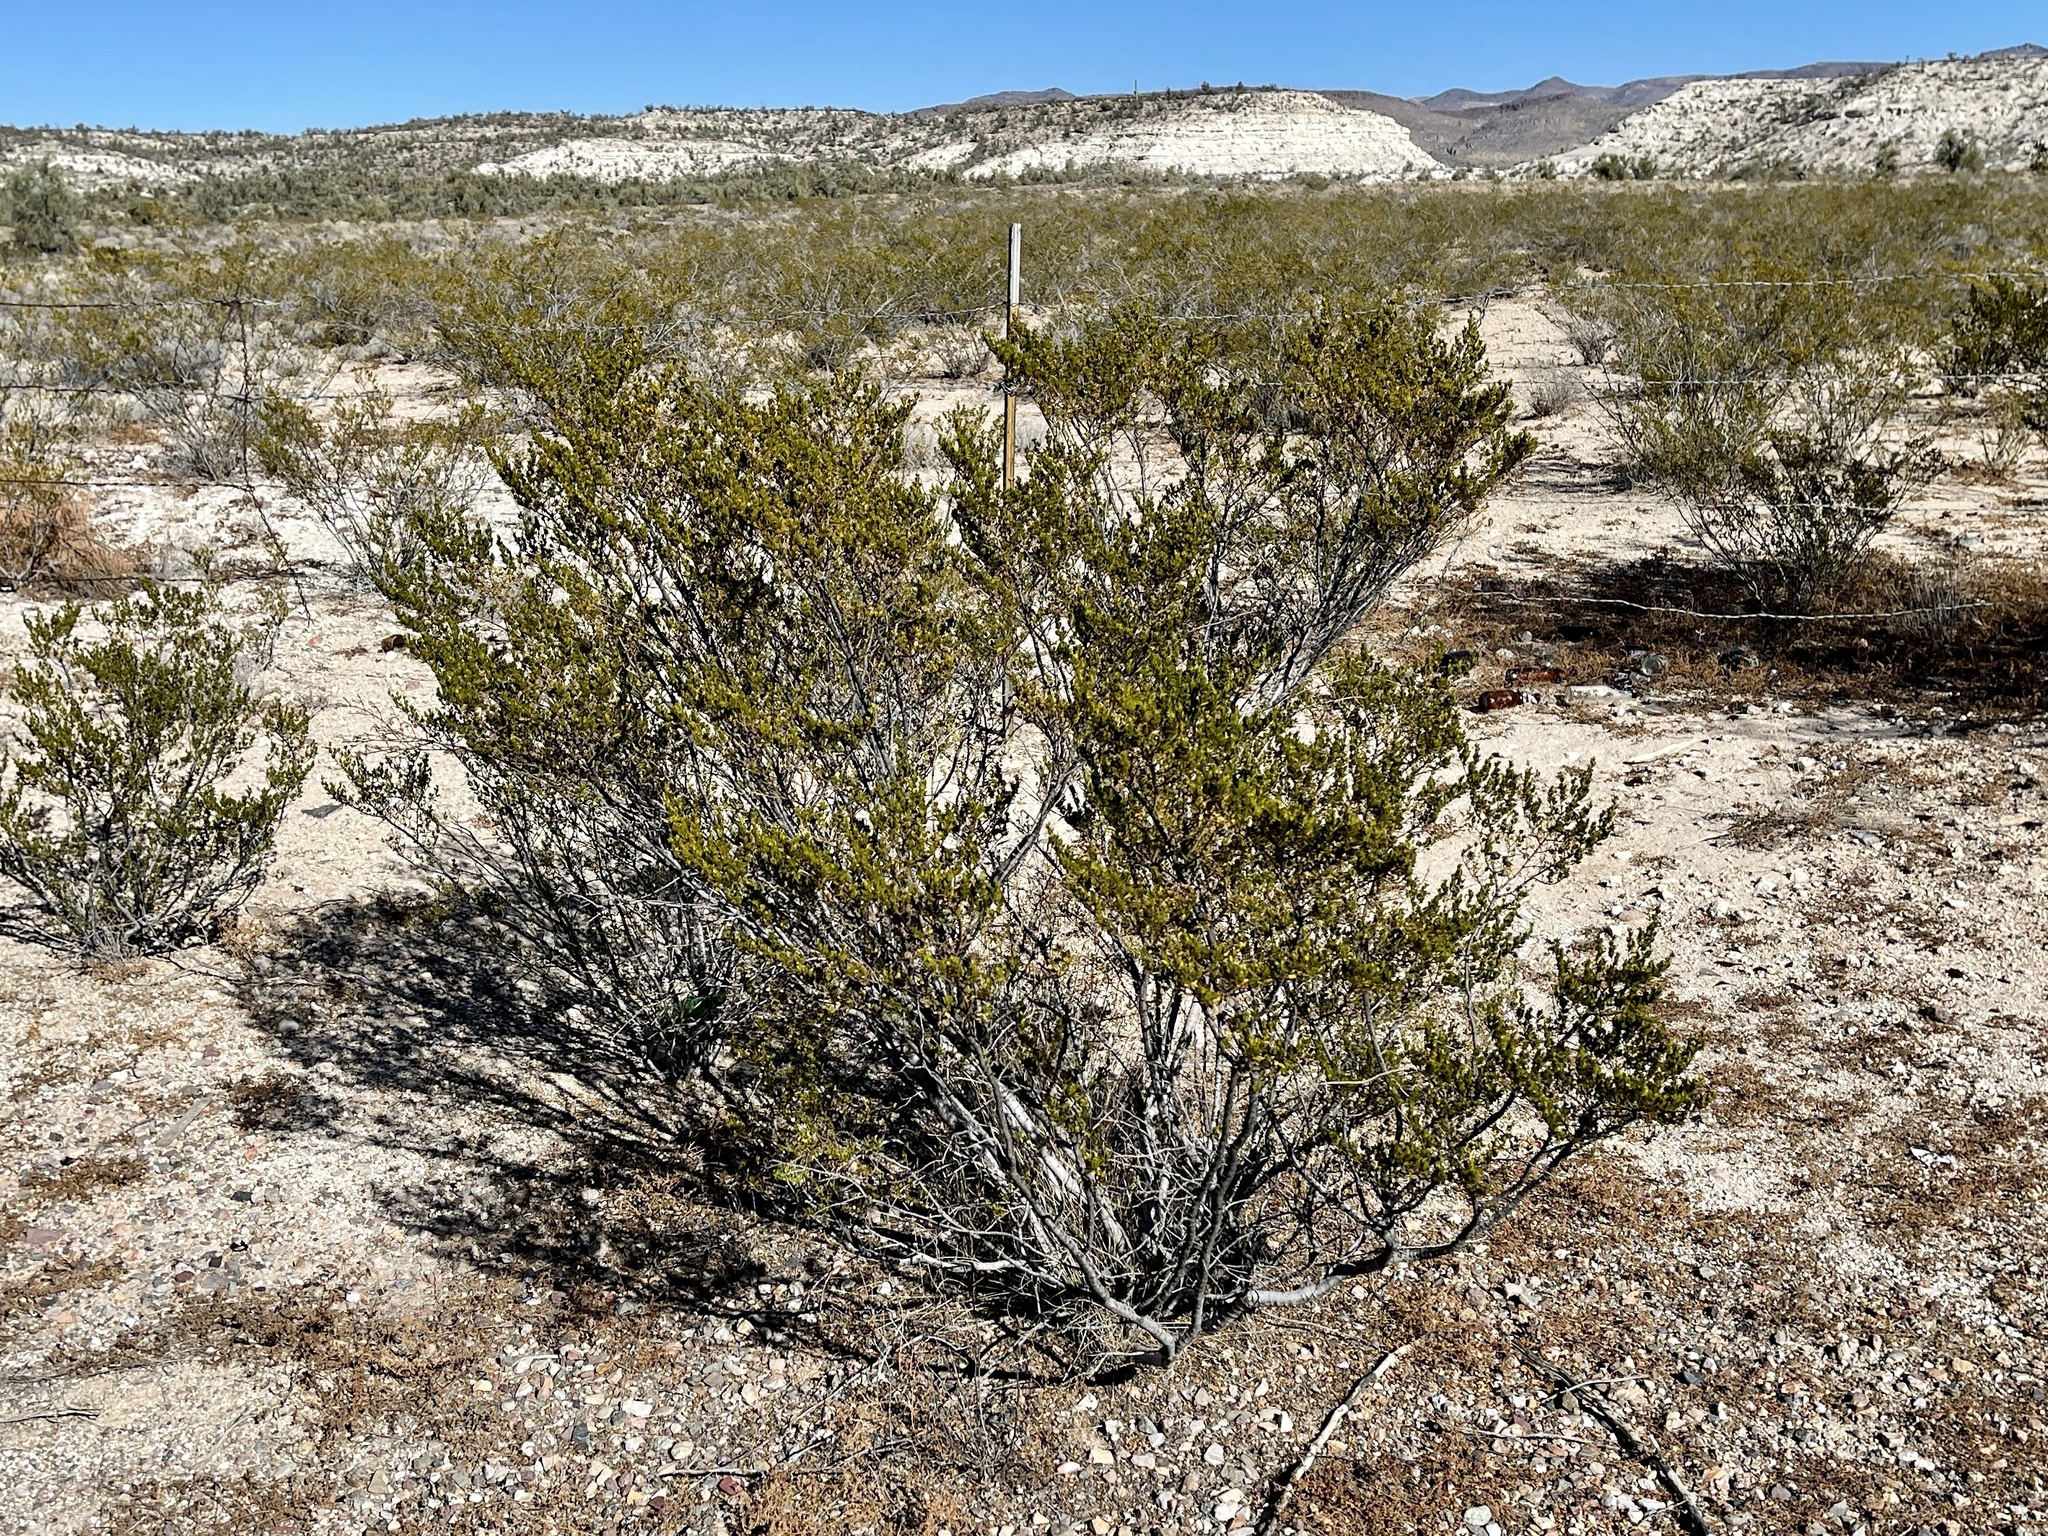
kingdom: Plantae
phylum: Tracheophyta
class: Magnoliopsida
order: Zygophyllales
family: Zygophyllaceae
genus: Larrea
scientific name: Larrea tridentata
